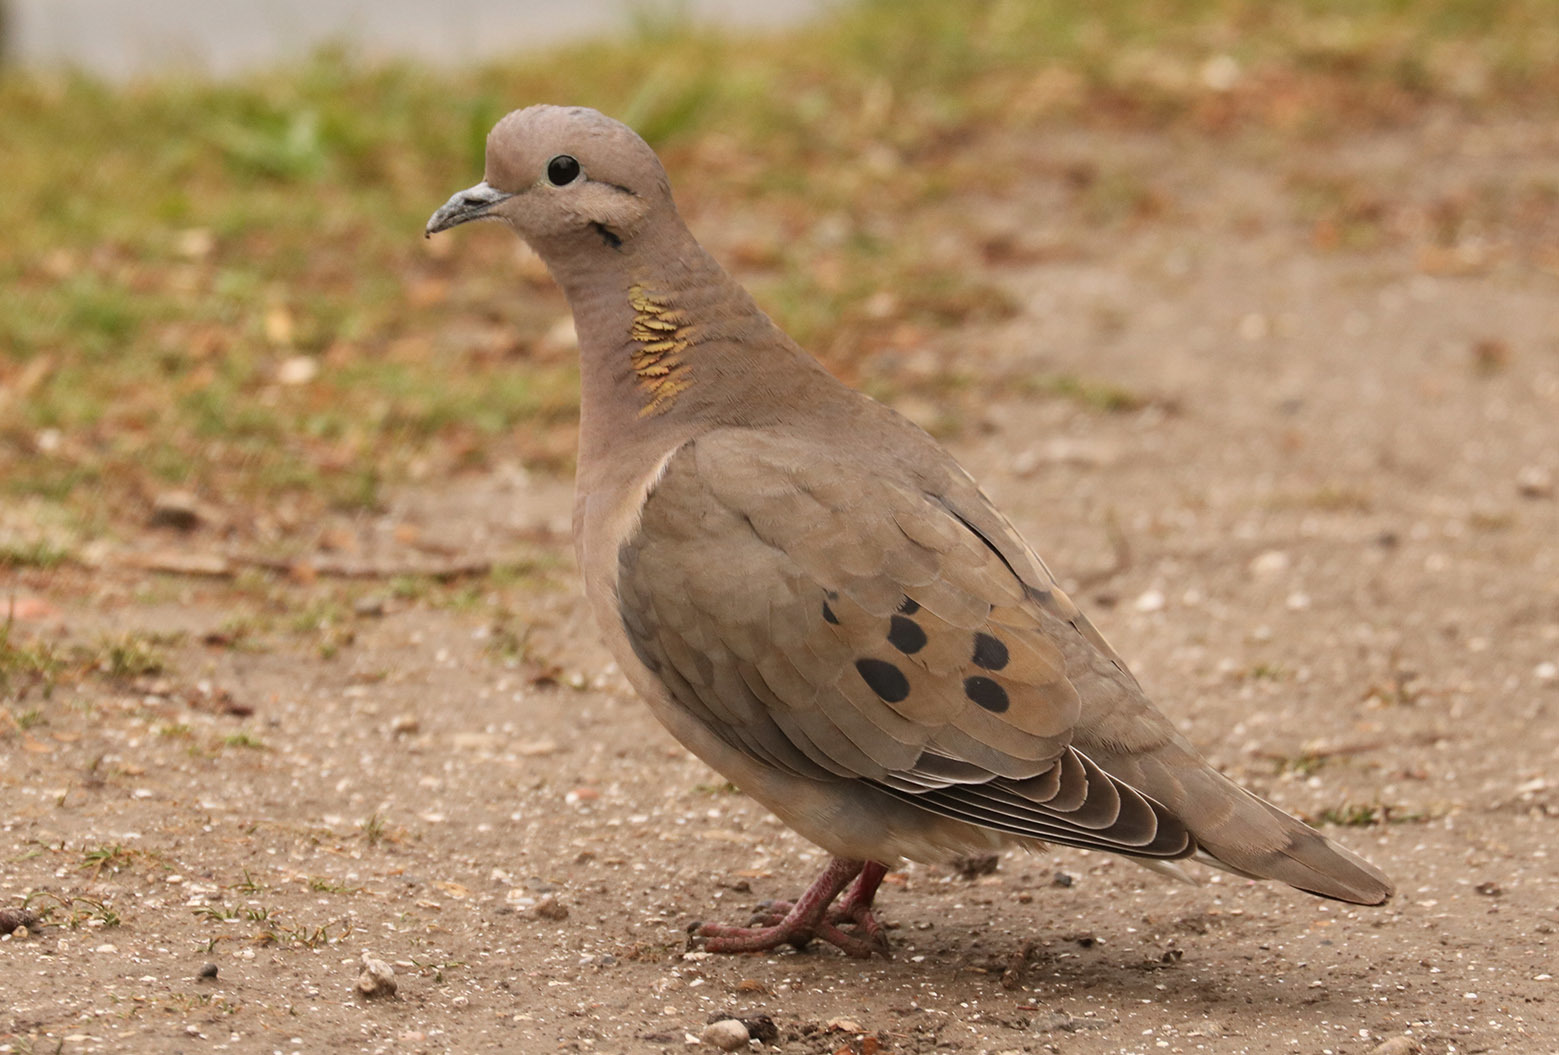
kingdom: Animalia
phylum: Chordata
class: Aves
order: Columbiformes
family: Columbidae
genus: Zenaida
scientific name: Zenaida auriculata
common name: Eared dove
